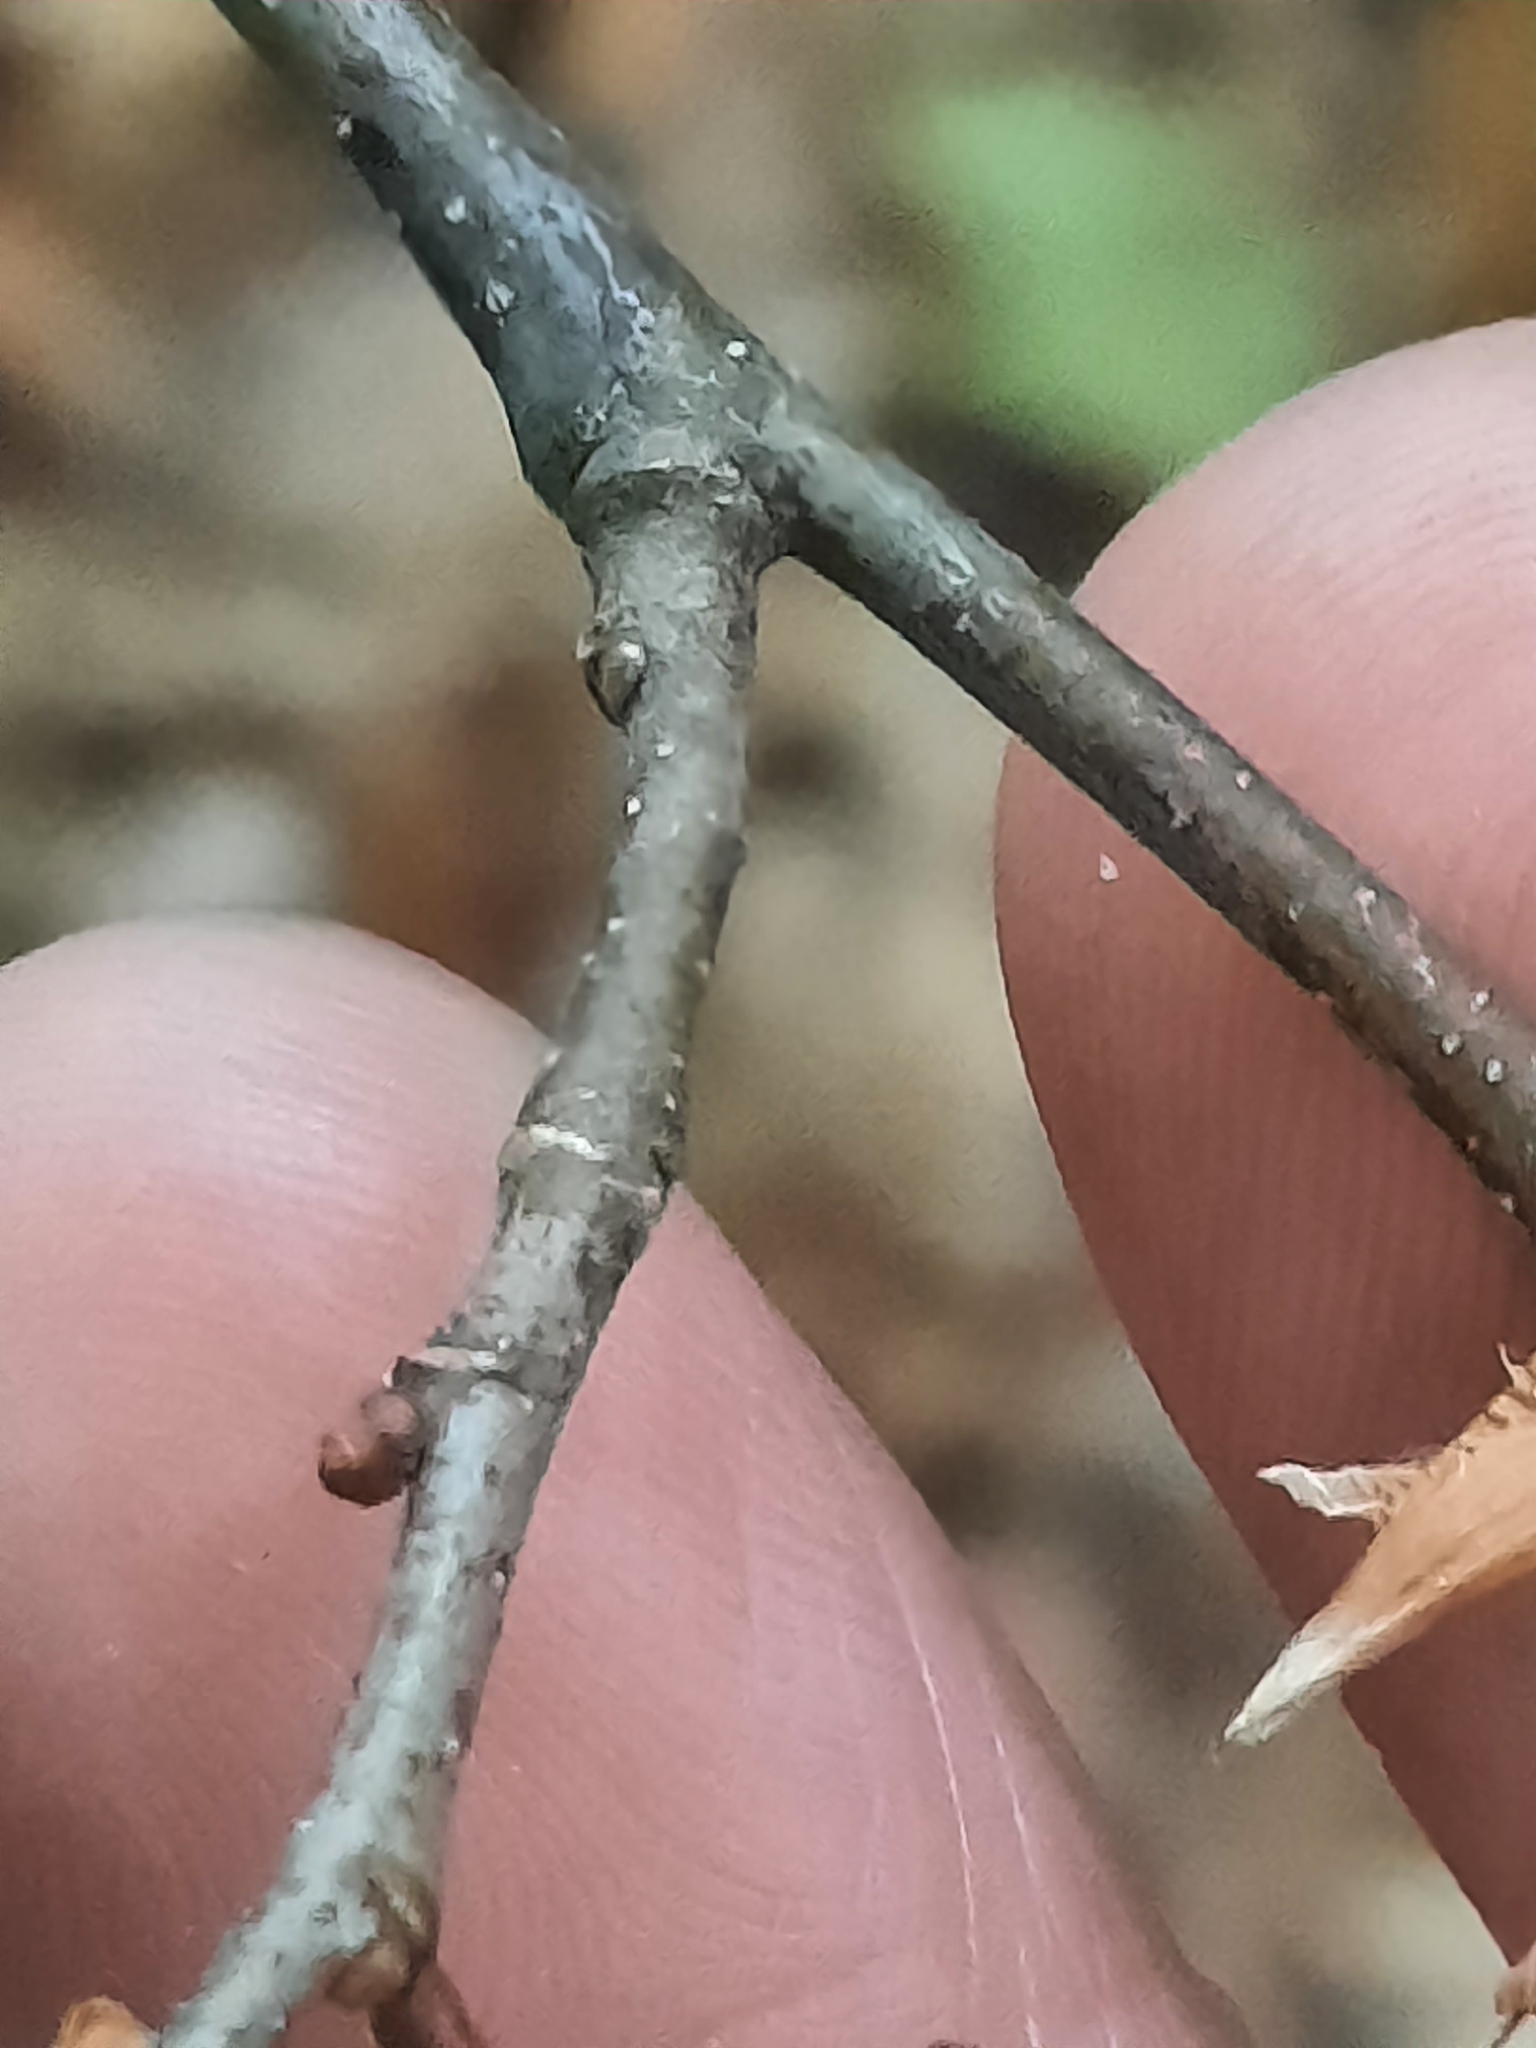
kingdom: Plantae
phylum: Tracheophyta
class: Magnoliopsida
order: Fagales
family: Fagaceae
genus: Castanea
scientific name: Castanea dentata
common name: American chestnut
